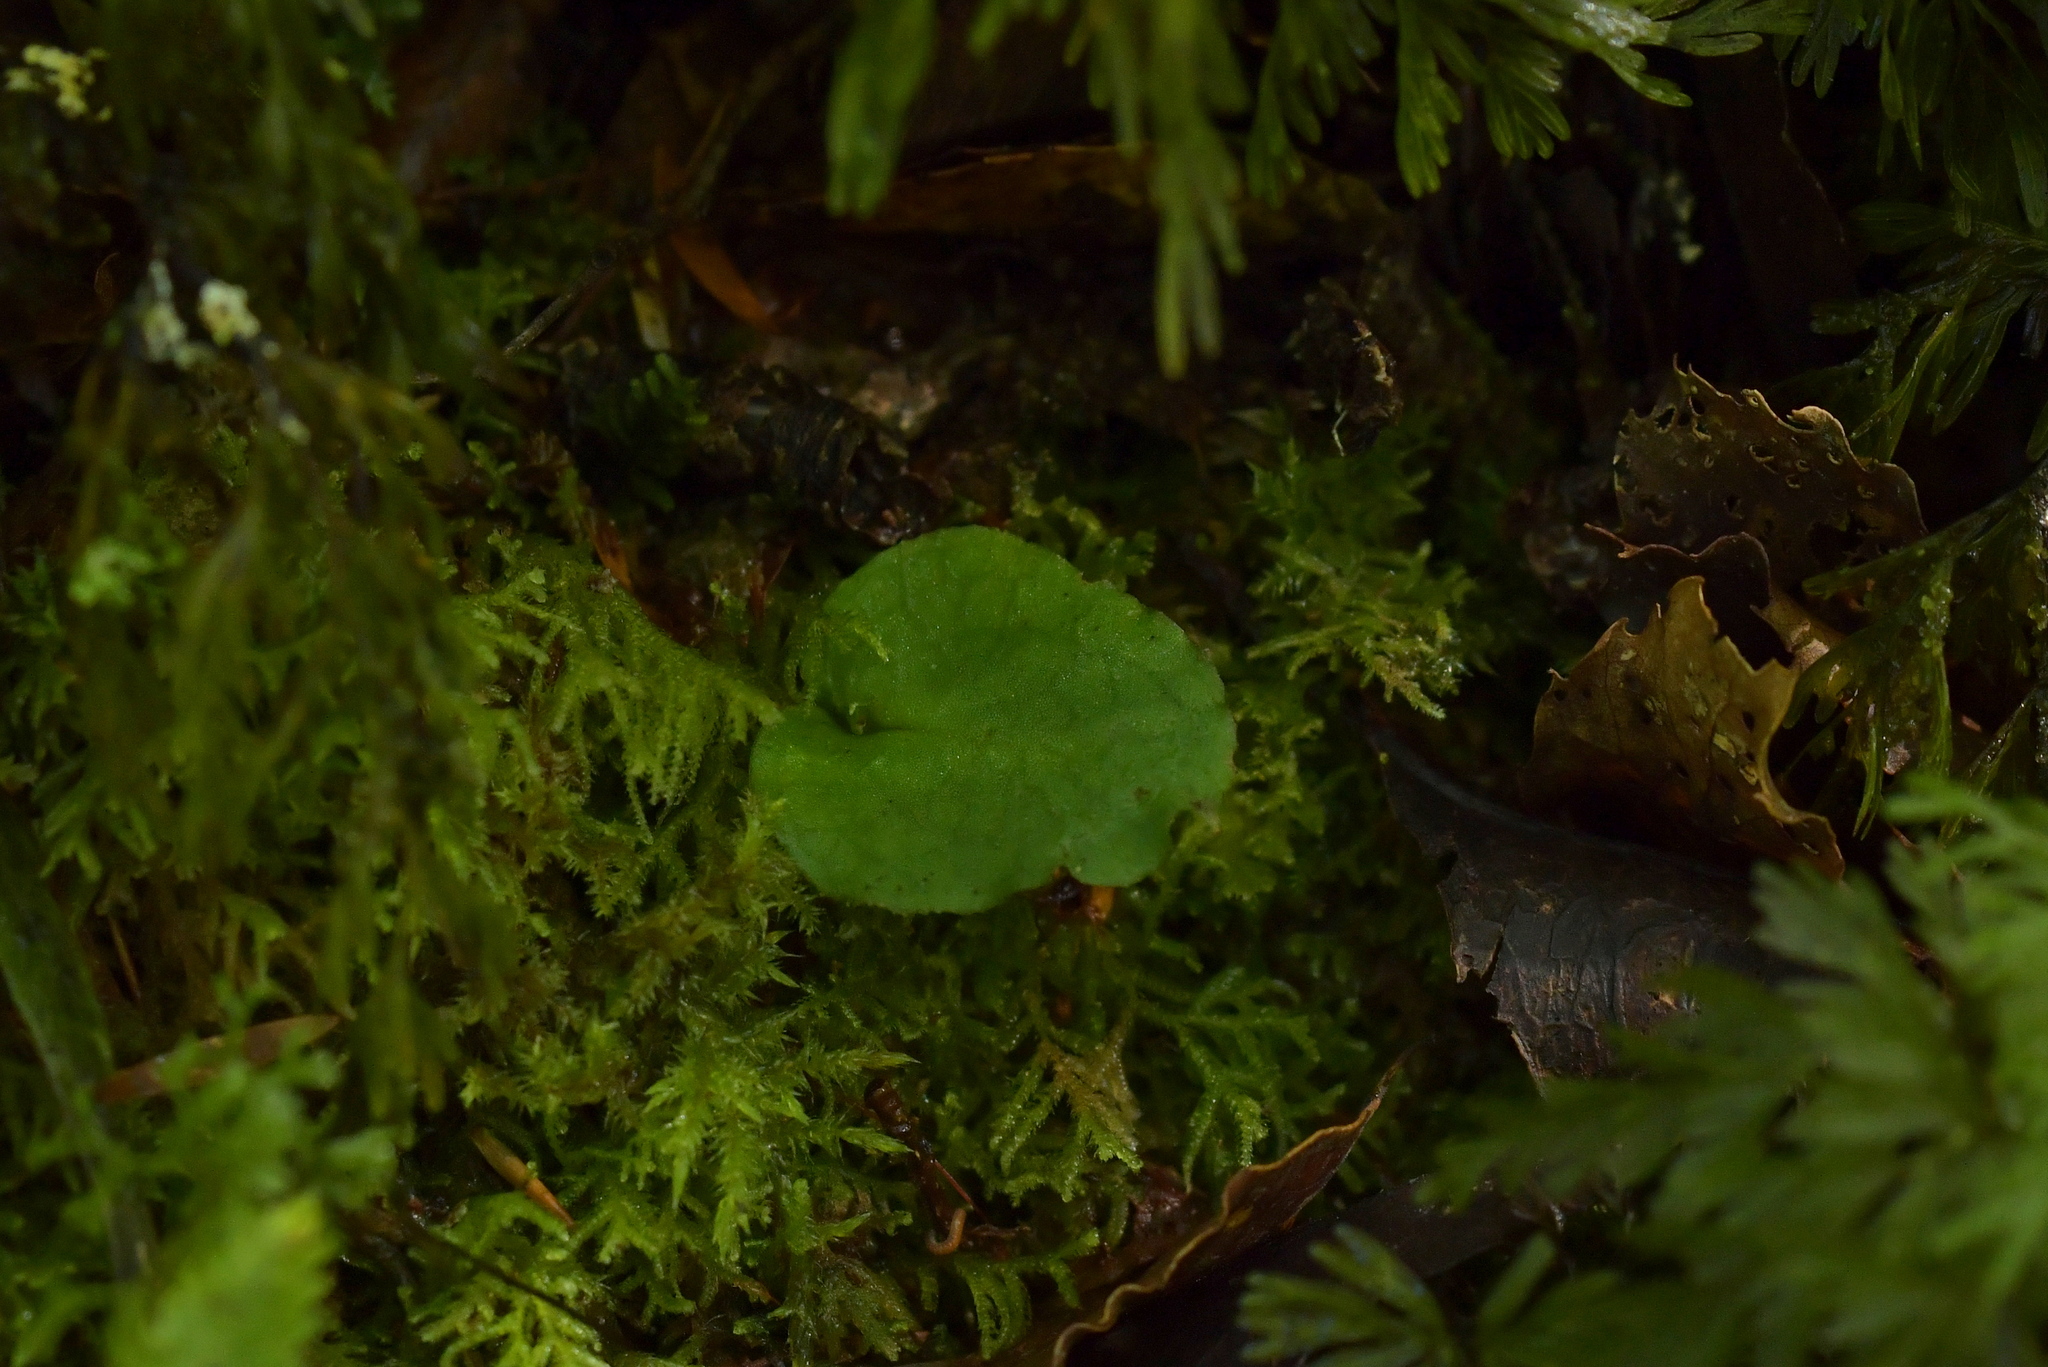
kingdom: Plantae
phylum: Tracheophyta
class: Liliopsida
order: Asparagales
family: Orchidaceae
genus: Corybas
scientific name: Corybas oblongus
